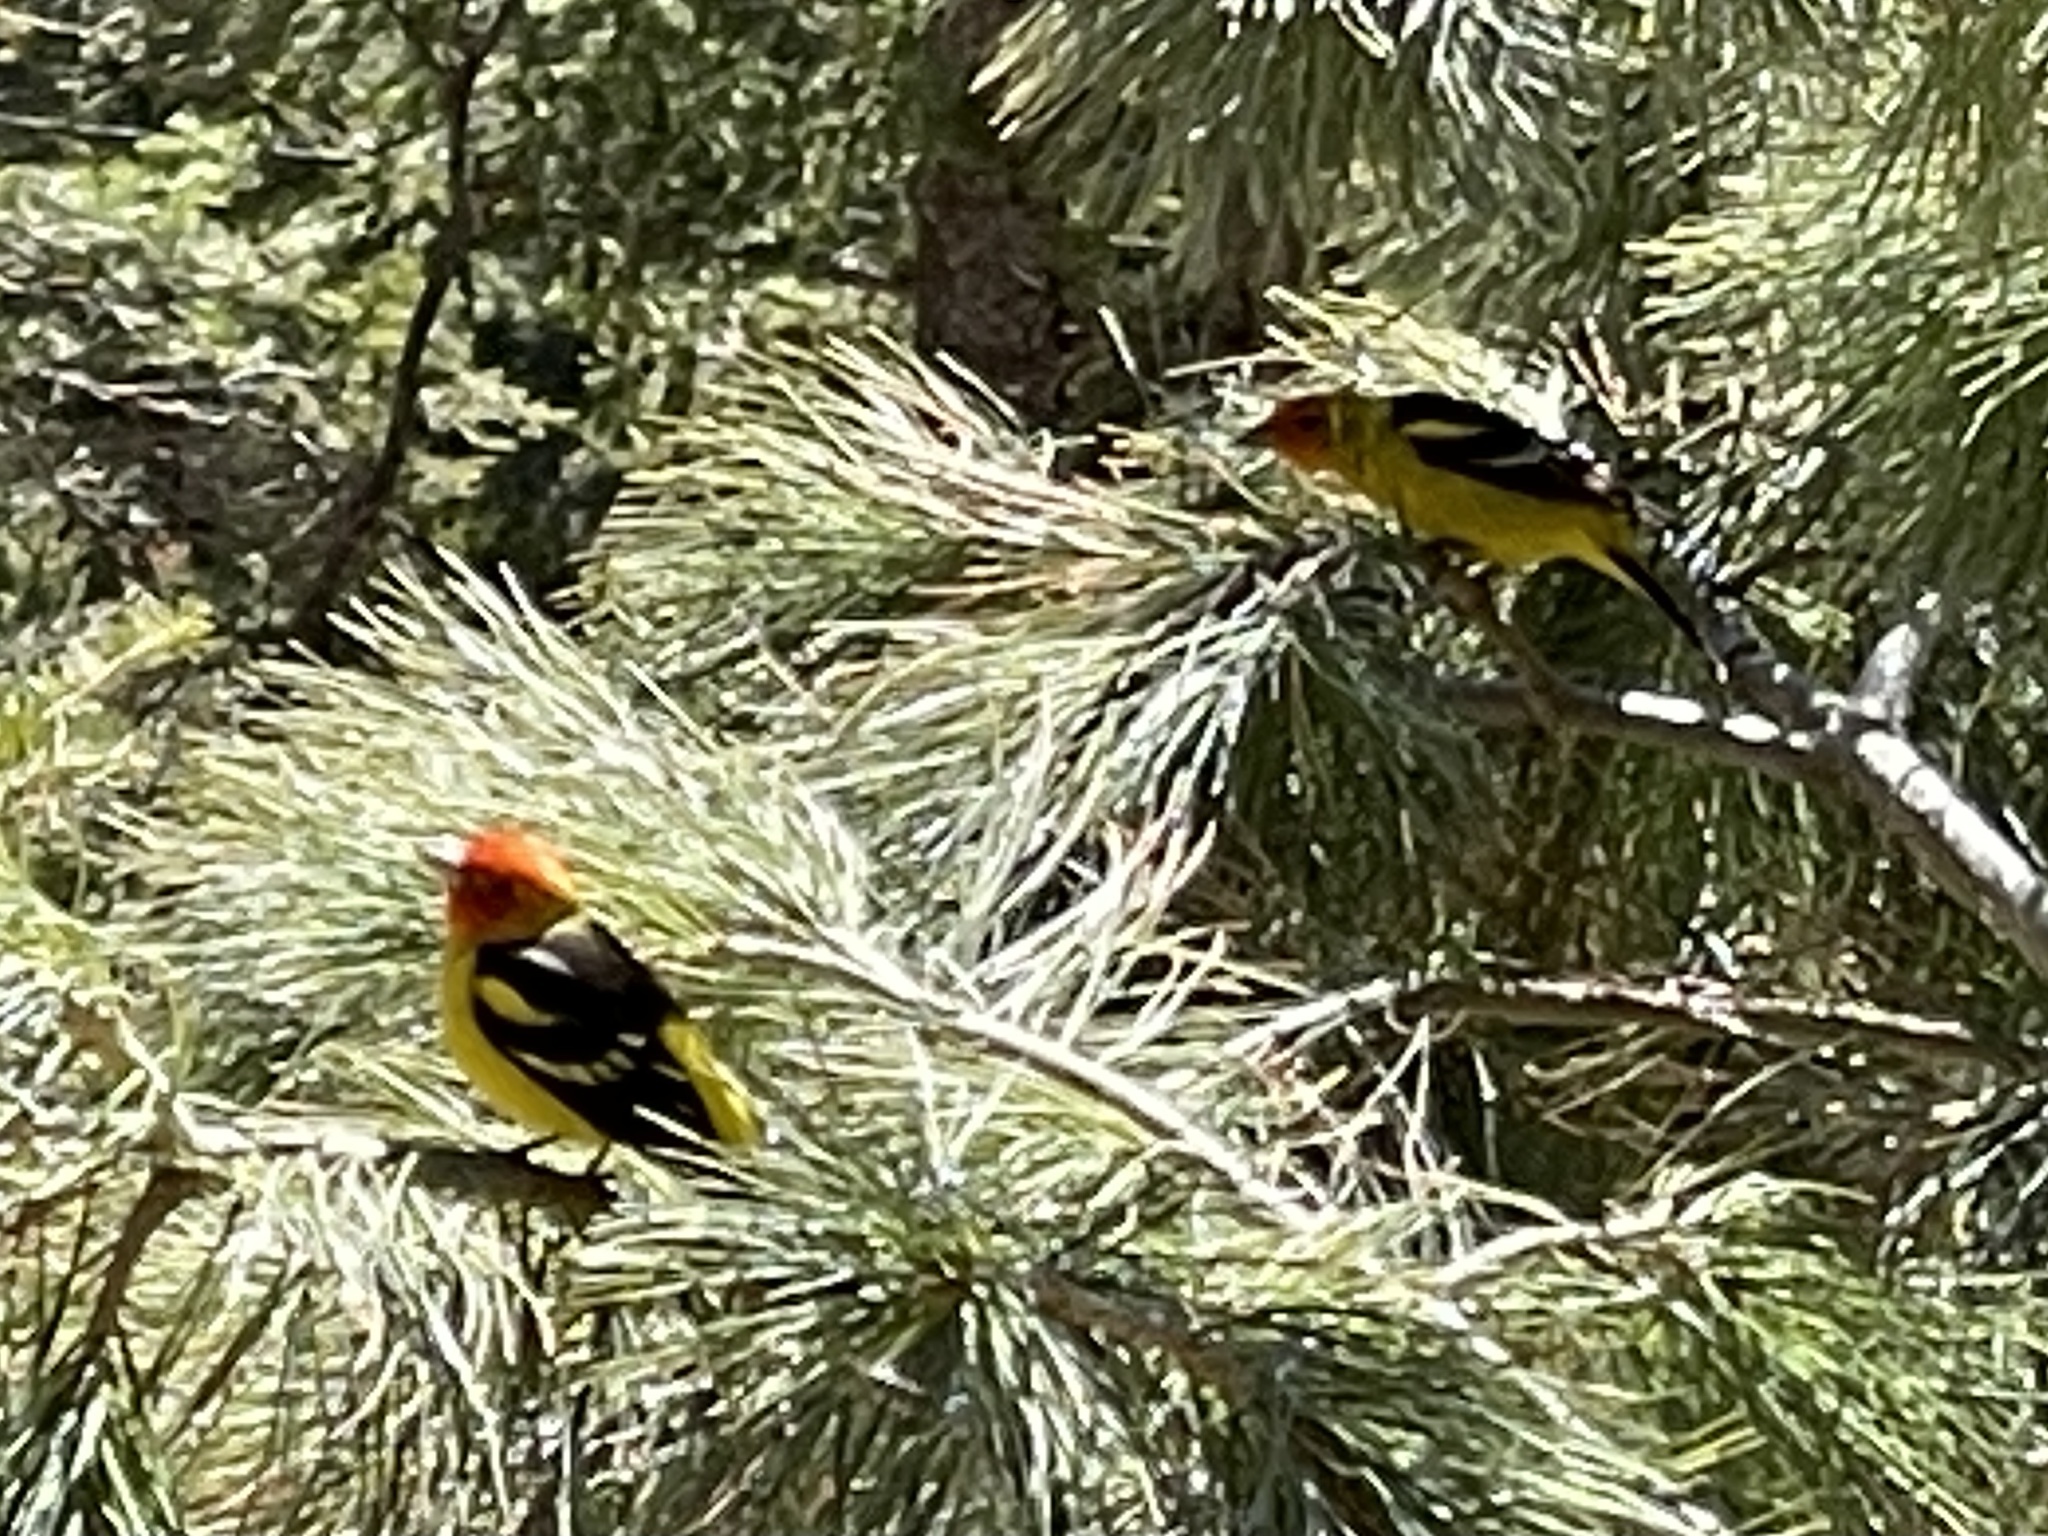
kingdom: Animalia
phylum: Chordata
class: Aves
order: Passeriformes
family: Cardinalidae
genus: Piranga
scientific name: Piranga ludoviciana
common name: Western tanager
